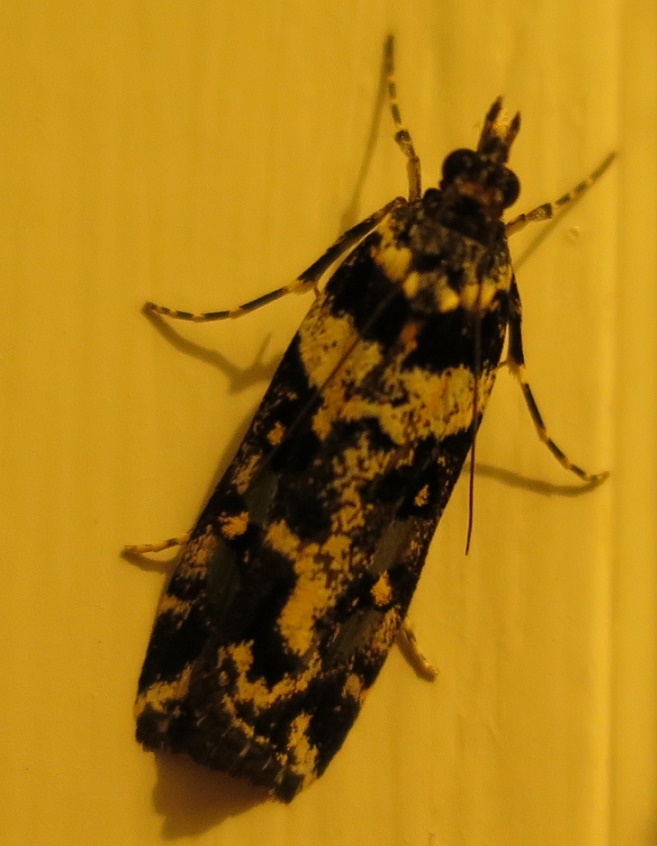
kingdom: Animalia
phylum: Arthropoda
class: Insecta
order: Lepidoptera
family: Crambidae
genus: Eudonia
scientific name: Eudonia diphtheralis
